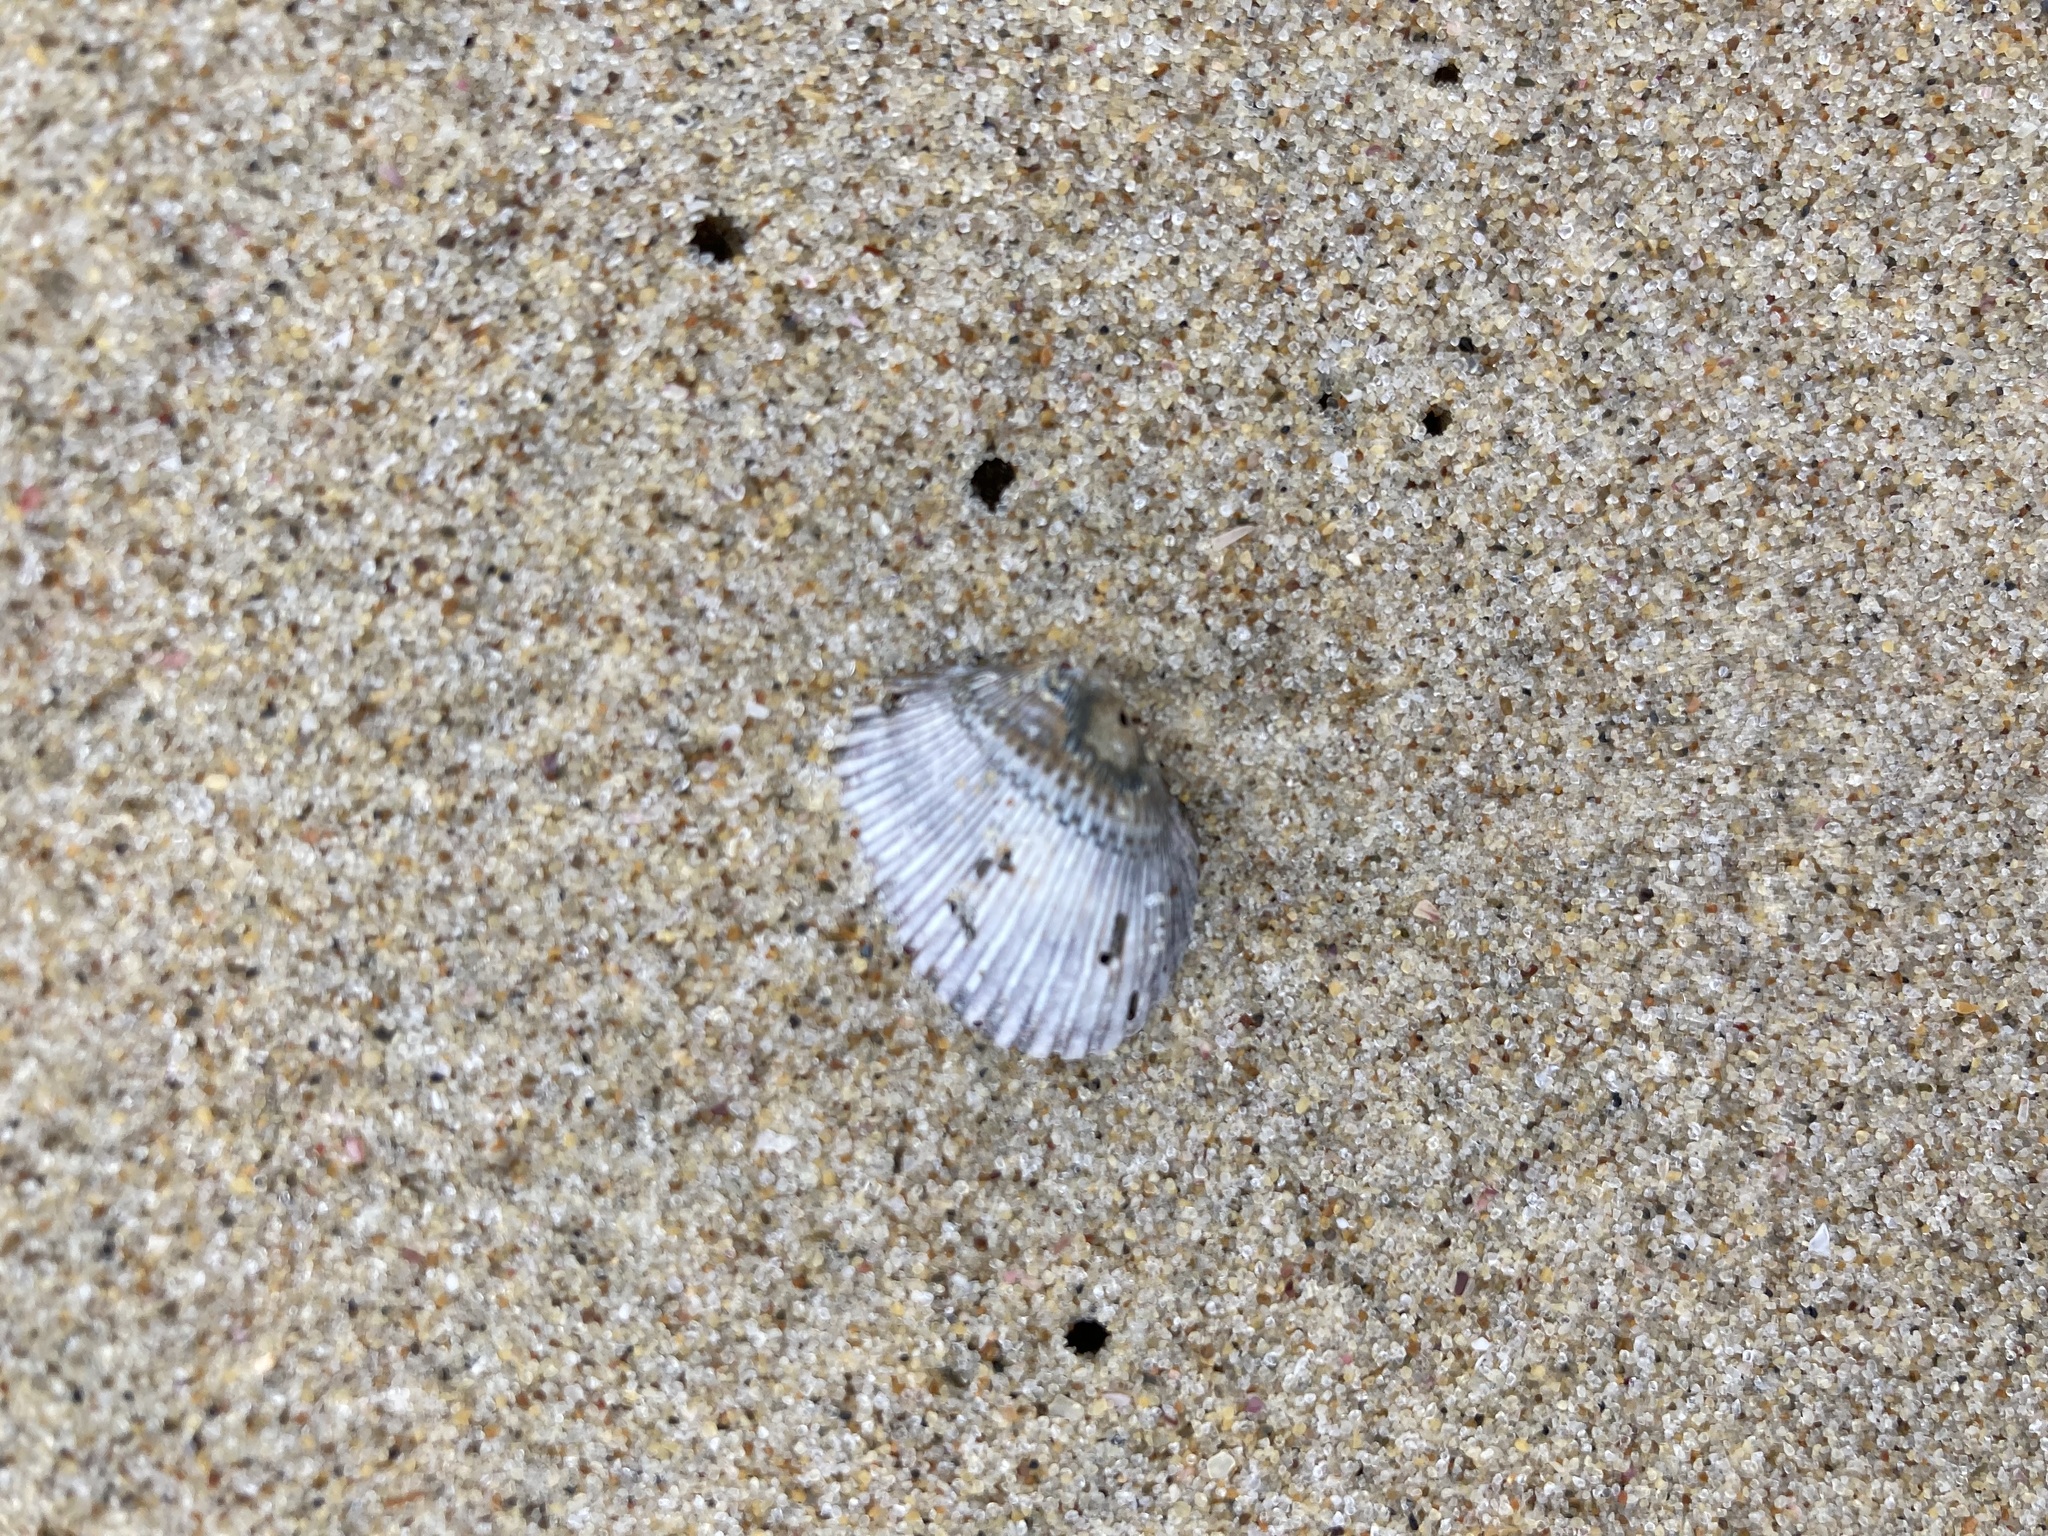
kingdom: Animalia
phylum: Mollusca
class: Bivalvia
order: Arcida
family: Arcidae
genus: Anadara
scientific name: Anadara trapezia
